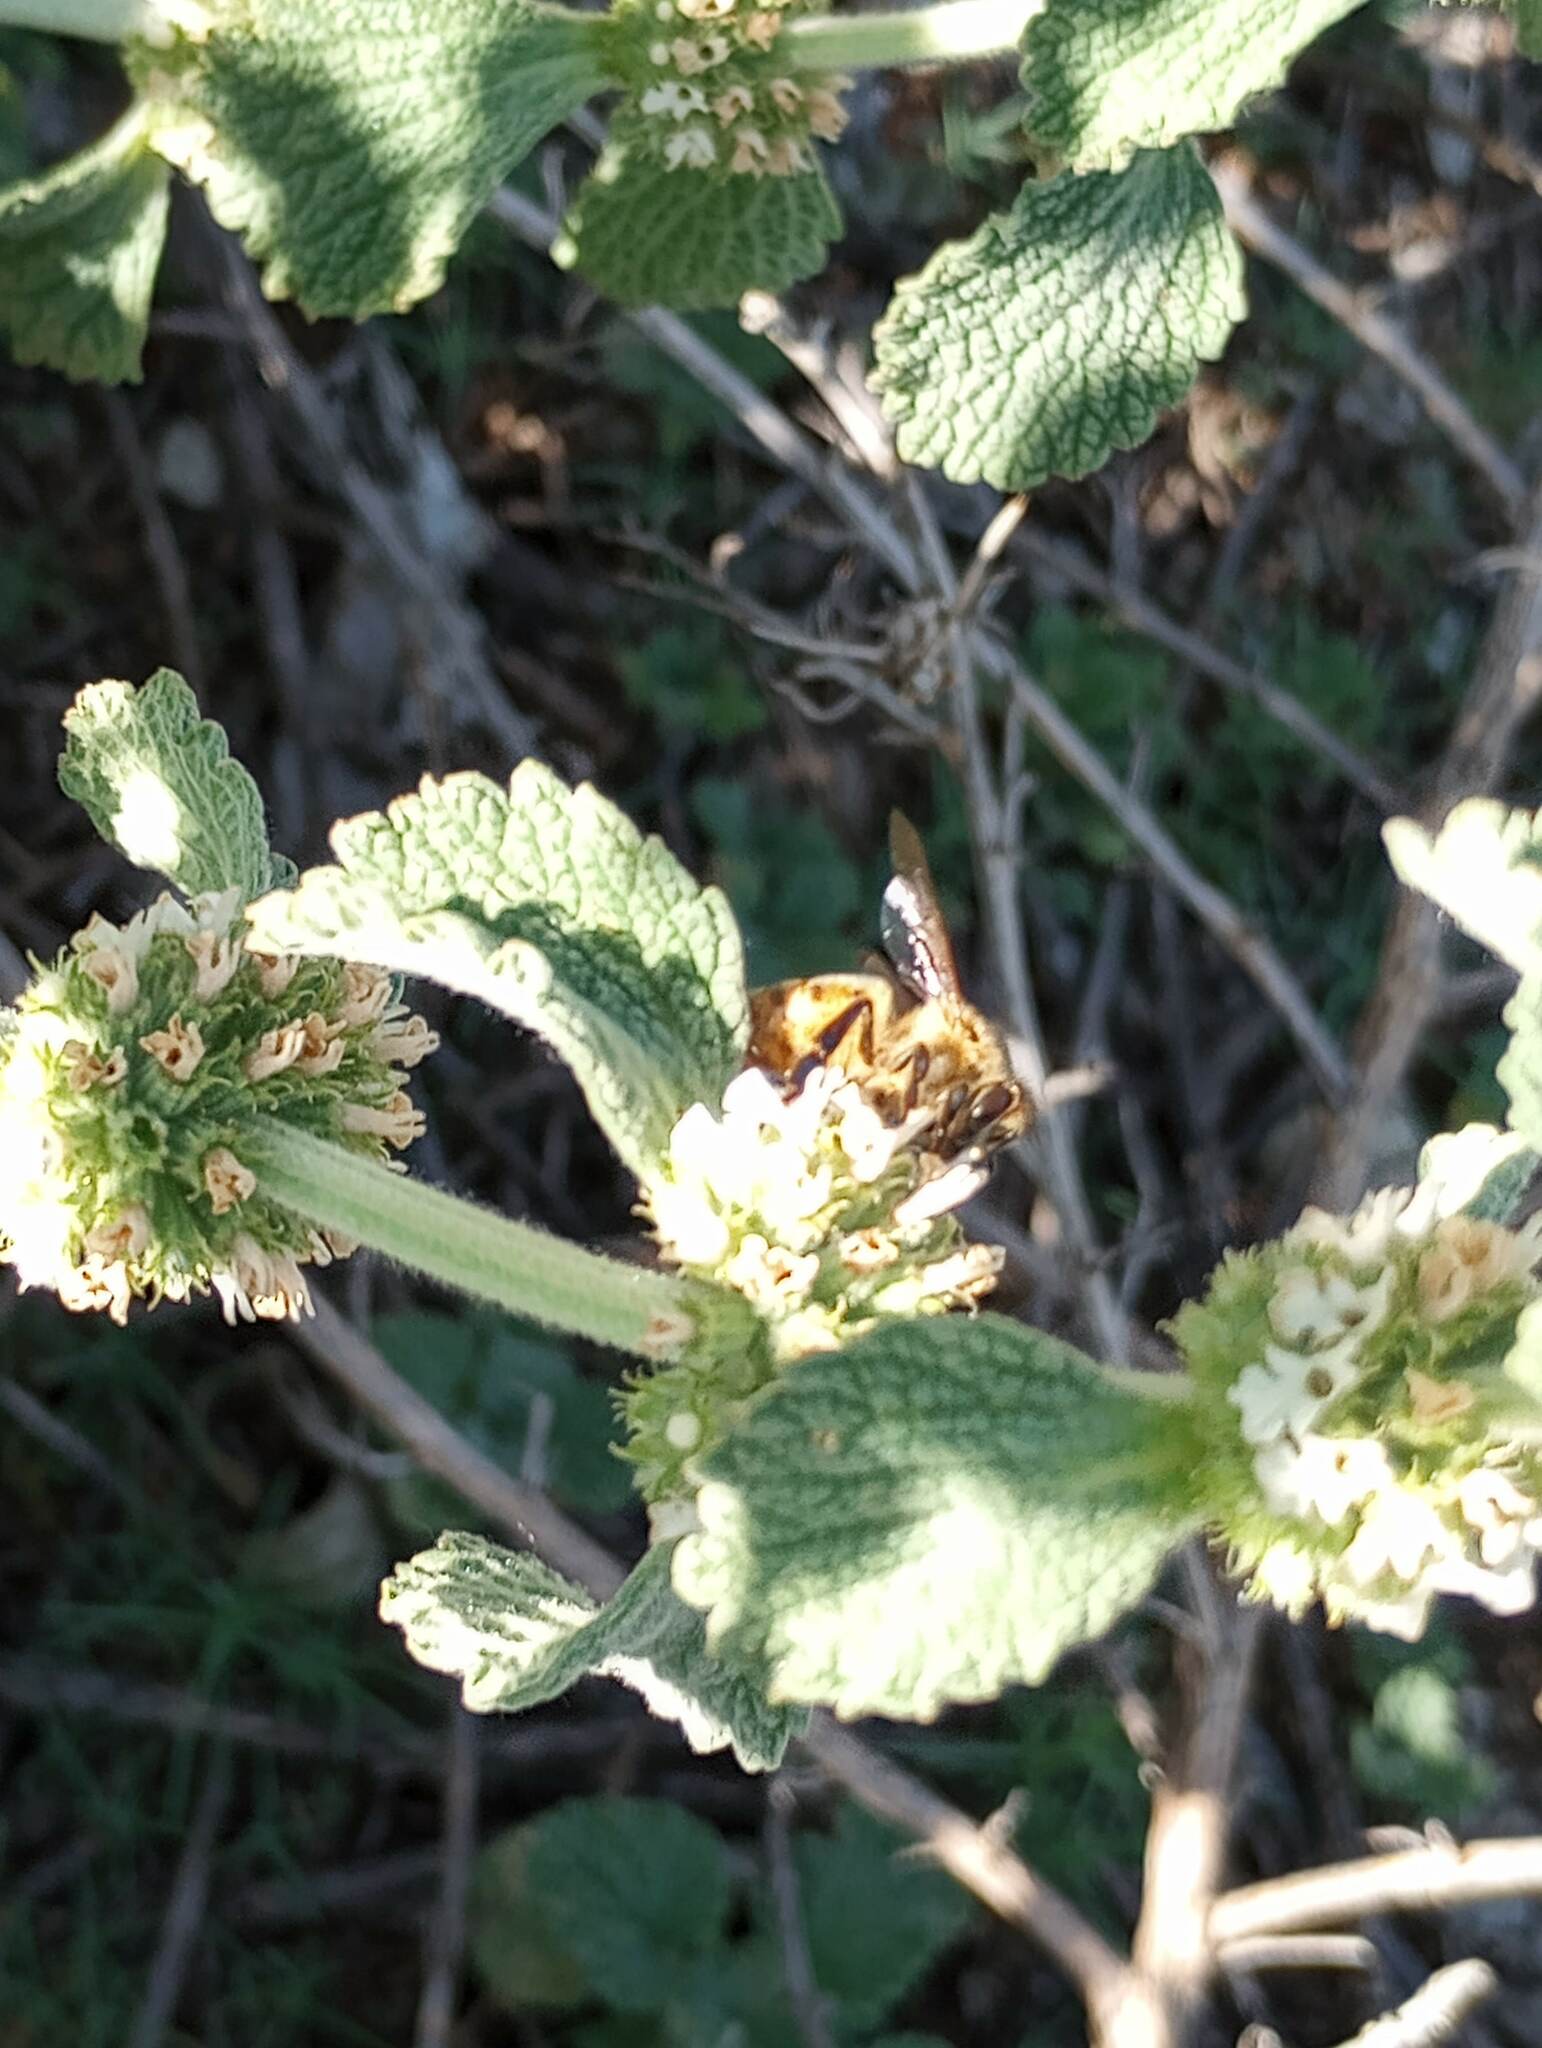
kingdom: Animalia
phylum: Arthropoda
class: Insecta
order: Hymenoptera
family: Apidae
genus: Apis
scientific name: Apis mellifera
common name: Honey bee
